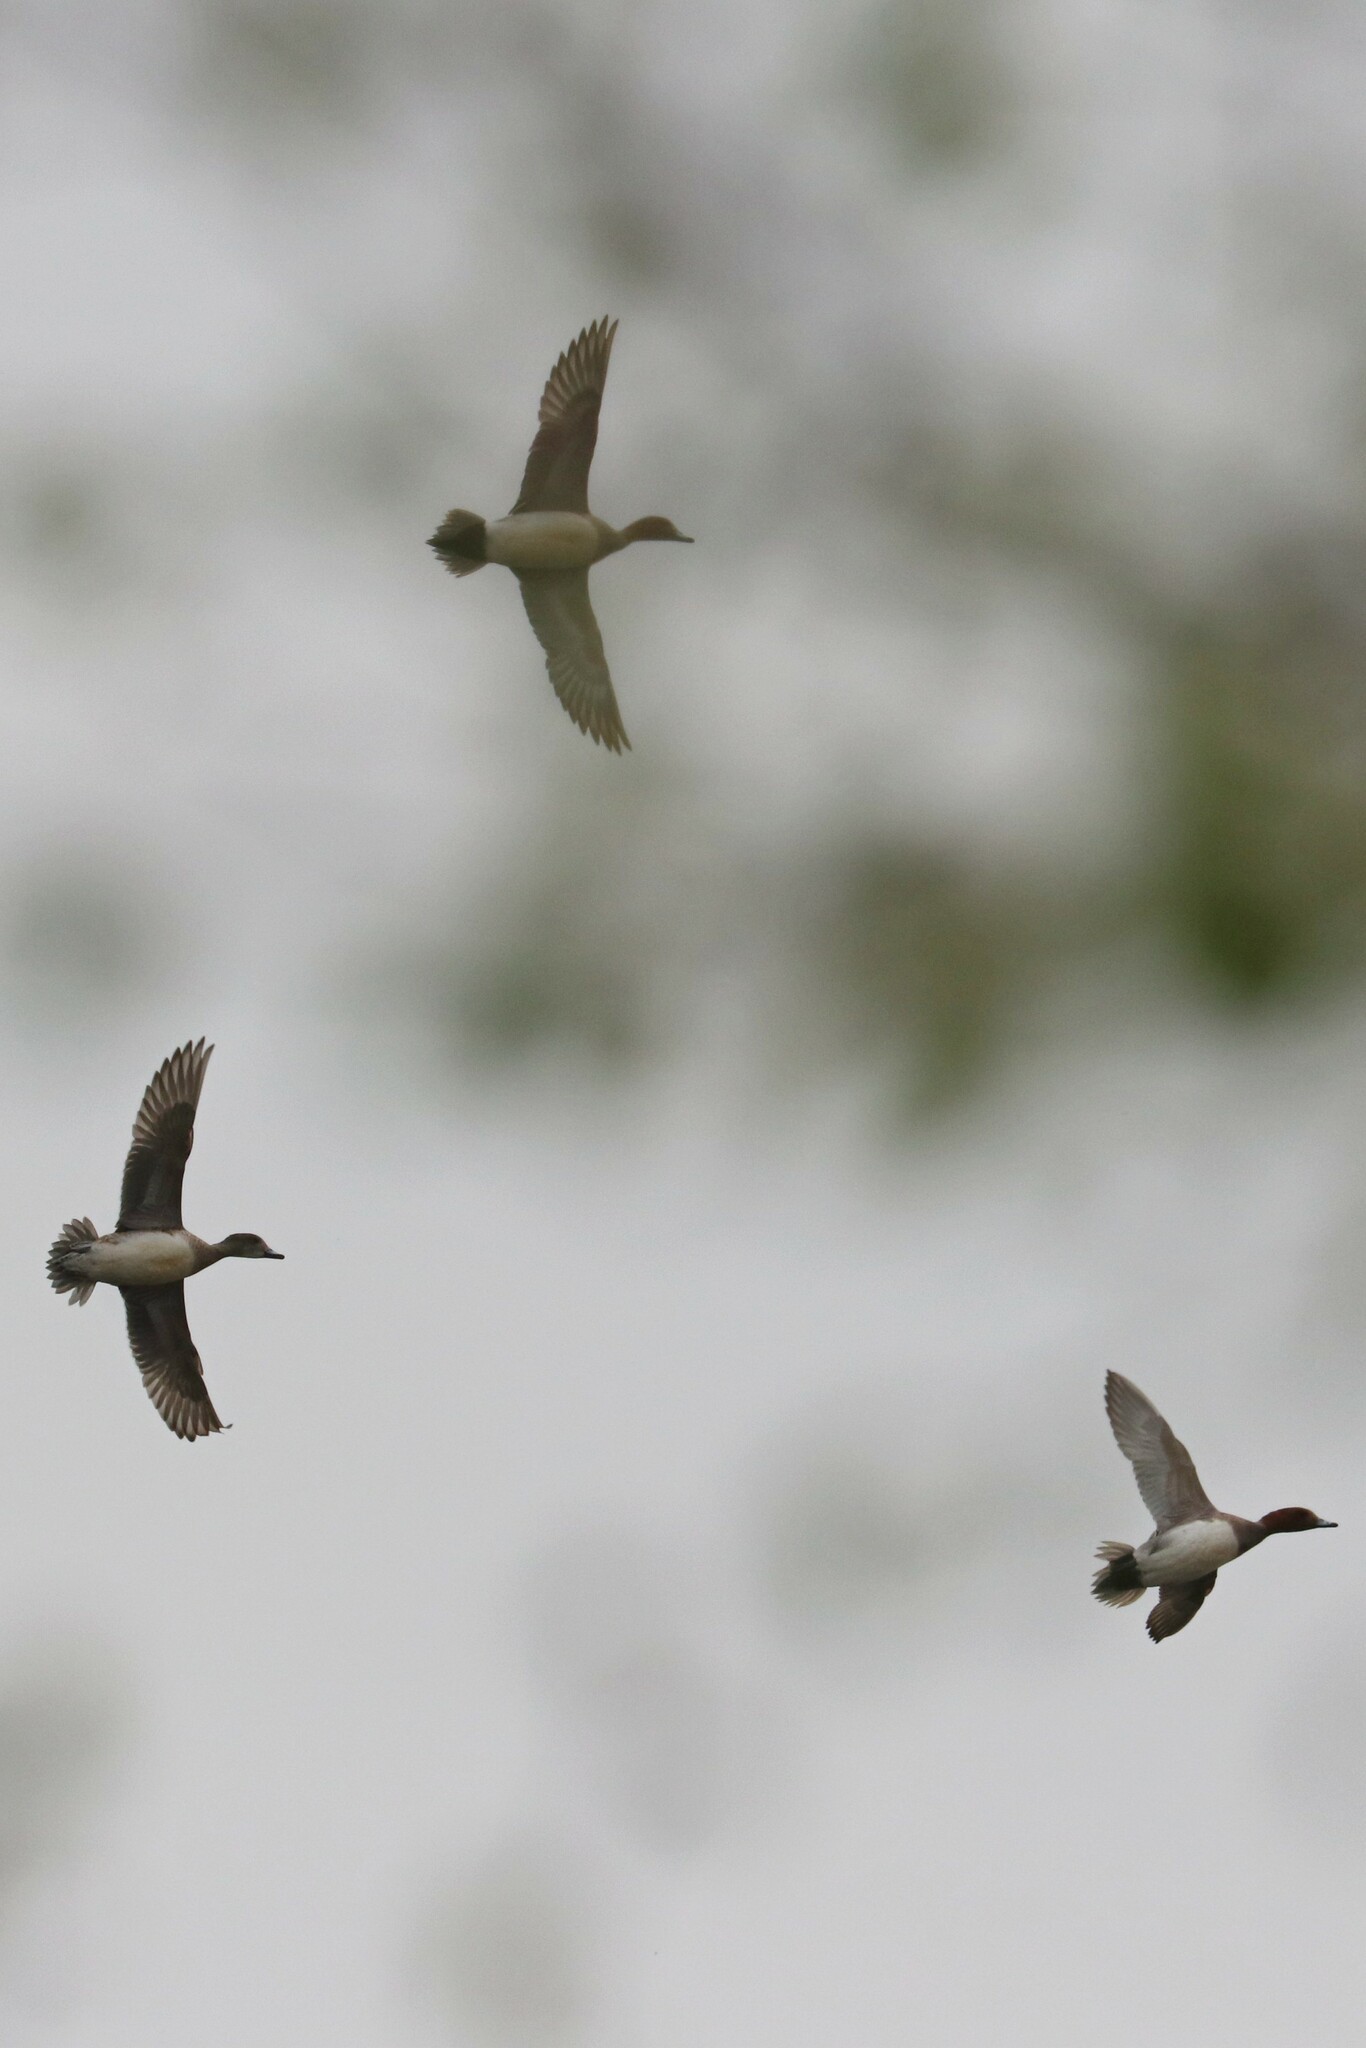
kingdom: Animalia
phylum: Chordata
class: Aves
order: Anseriformes
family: Anatidae
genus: Mareca
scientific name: Mareca penelope
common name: Eurasian wigeon
